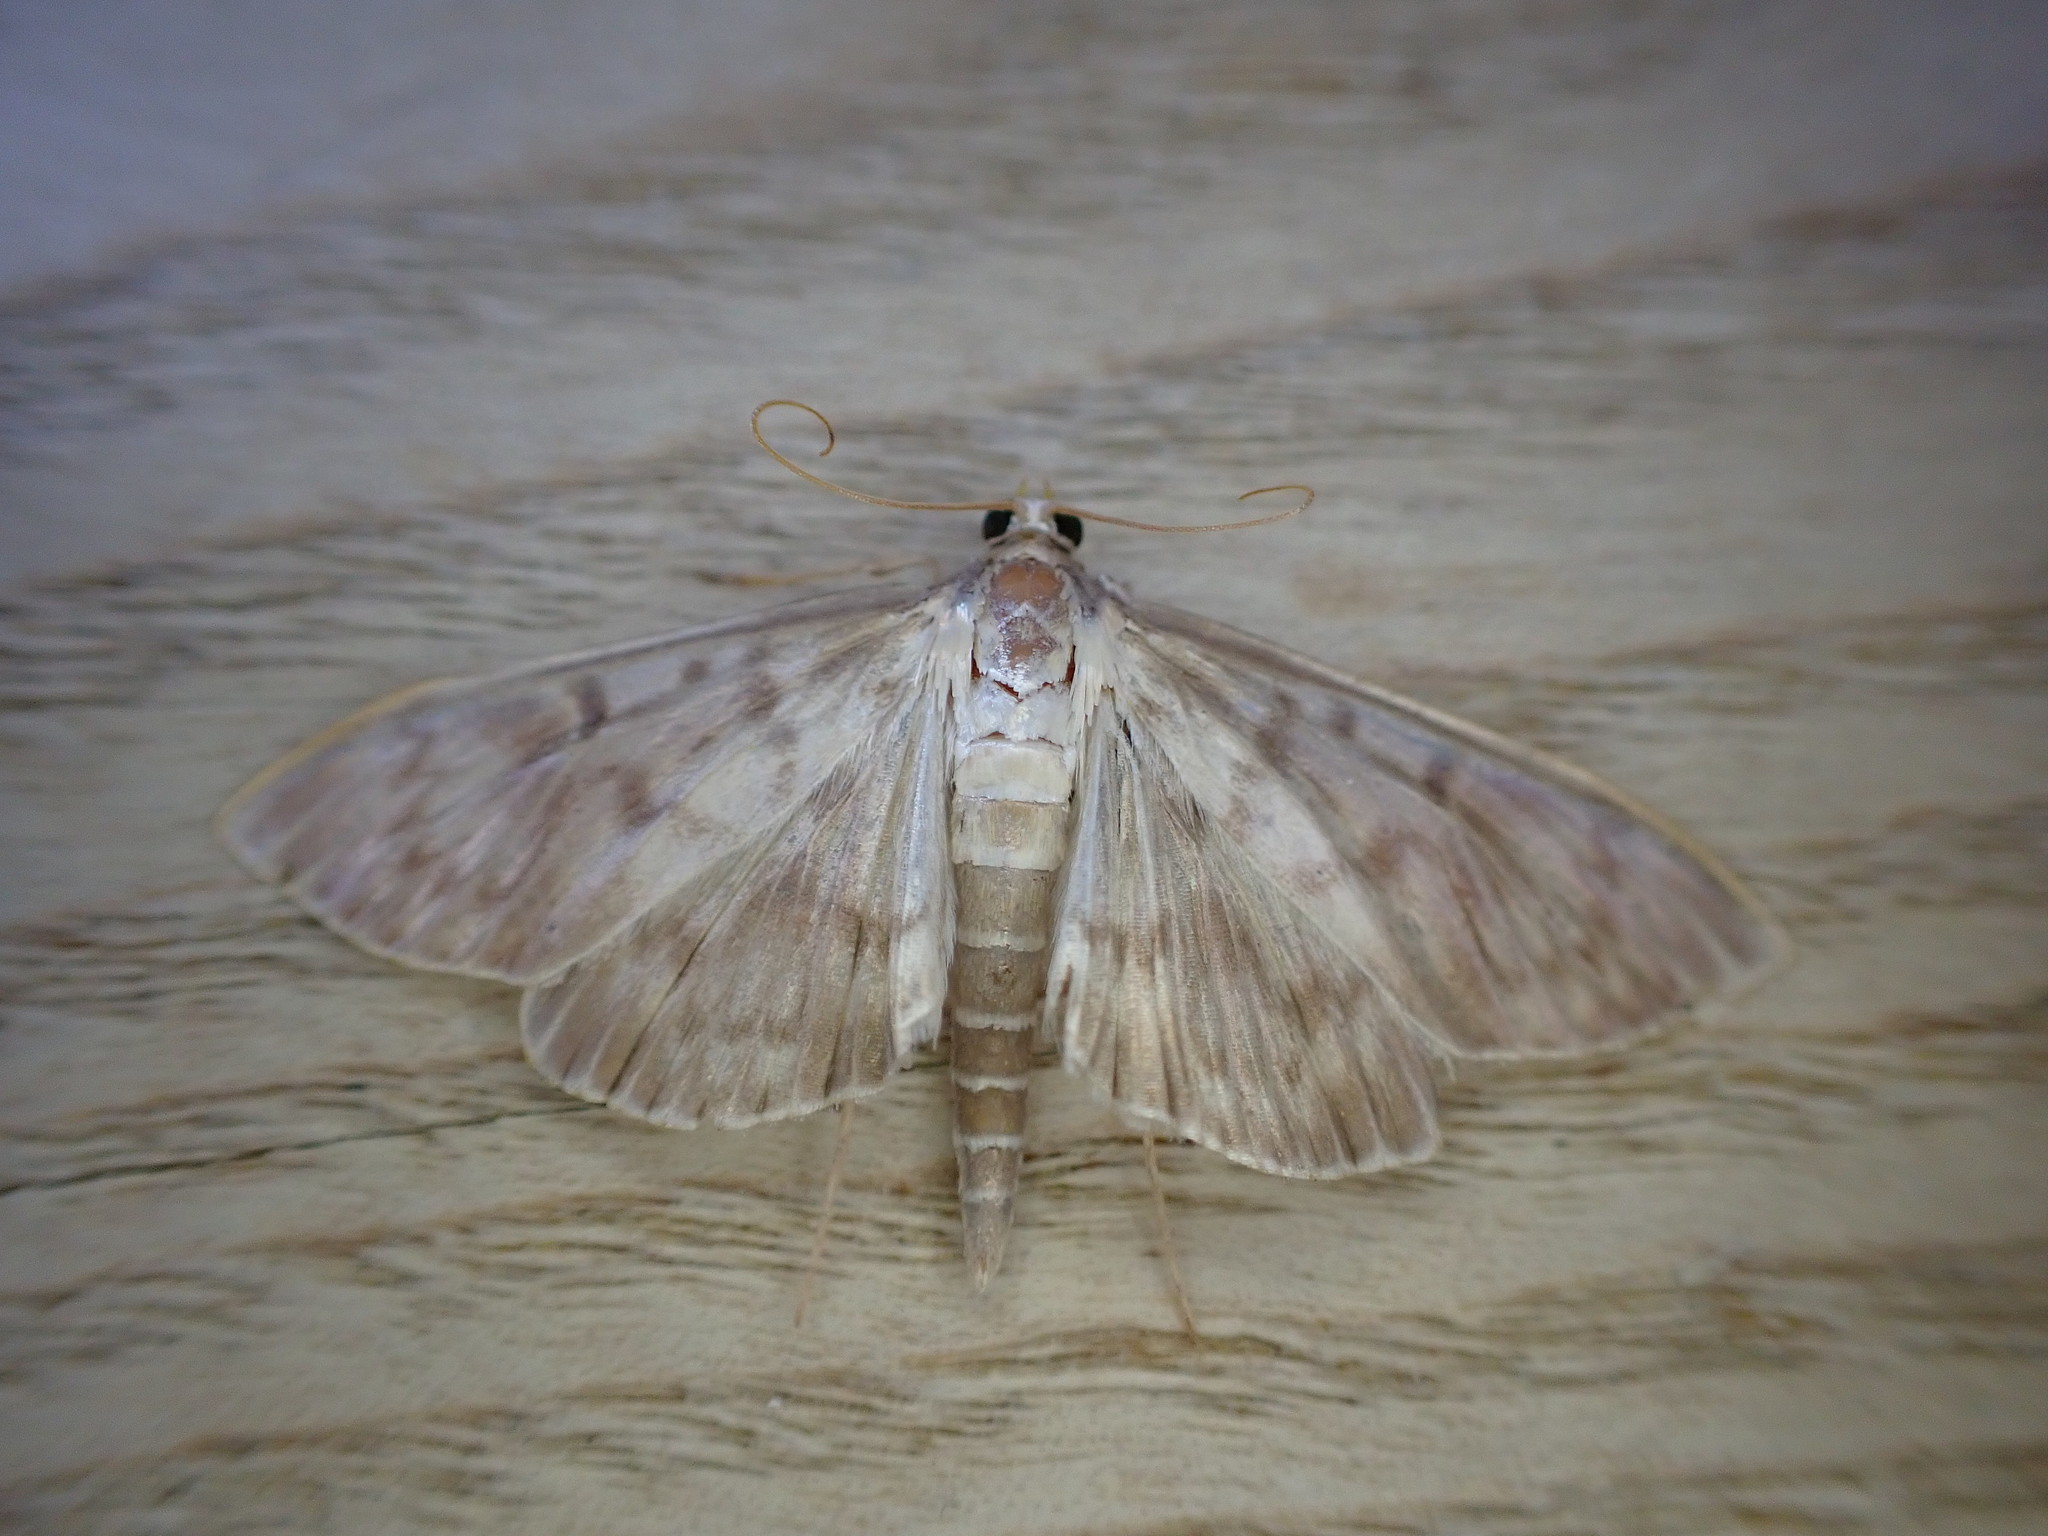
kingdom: Animalia
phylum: Arthropoda
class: Insecta
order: Lepidoptera
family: Crambidae
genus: Patania
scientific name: Patania ruralis
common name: Mother of pearl
